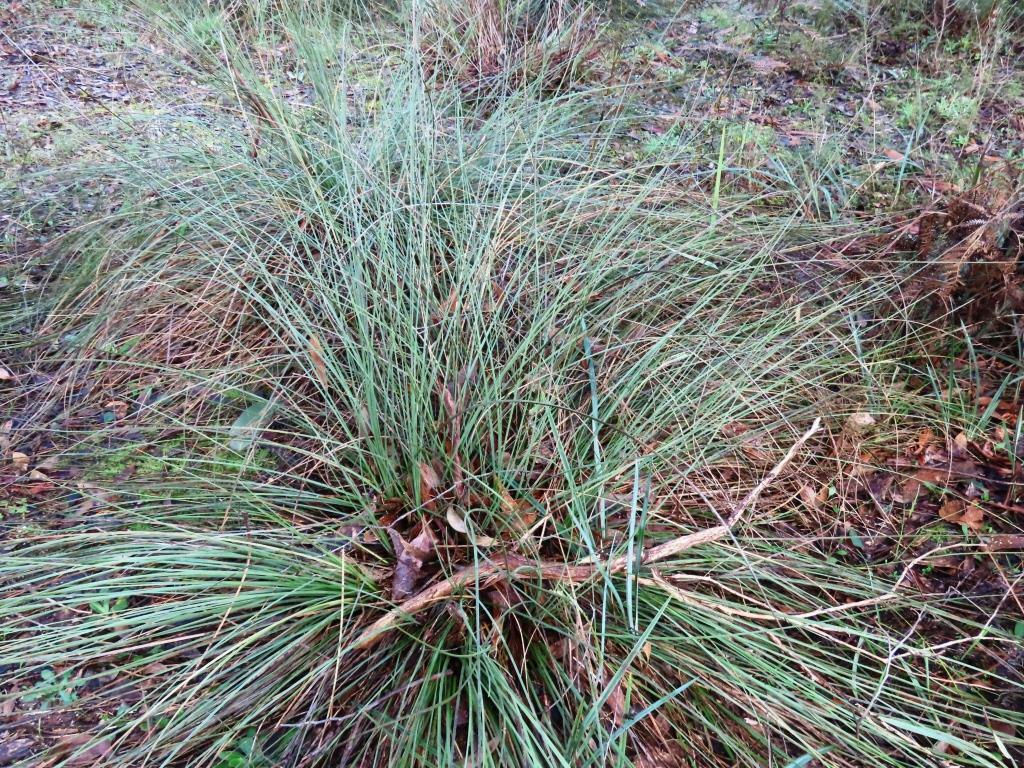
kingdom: Plantae
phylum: Tracheophyta
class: Liliopsida
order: Asparagales
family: Asphodelaceae
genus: Xanthorrhoea
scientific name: Xanthorrhoea minor
